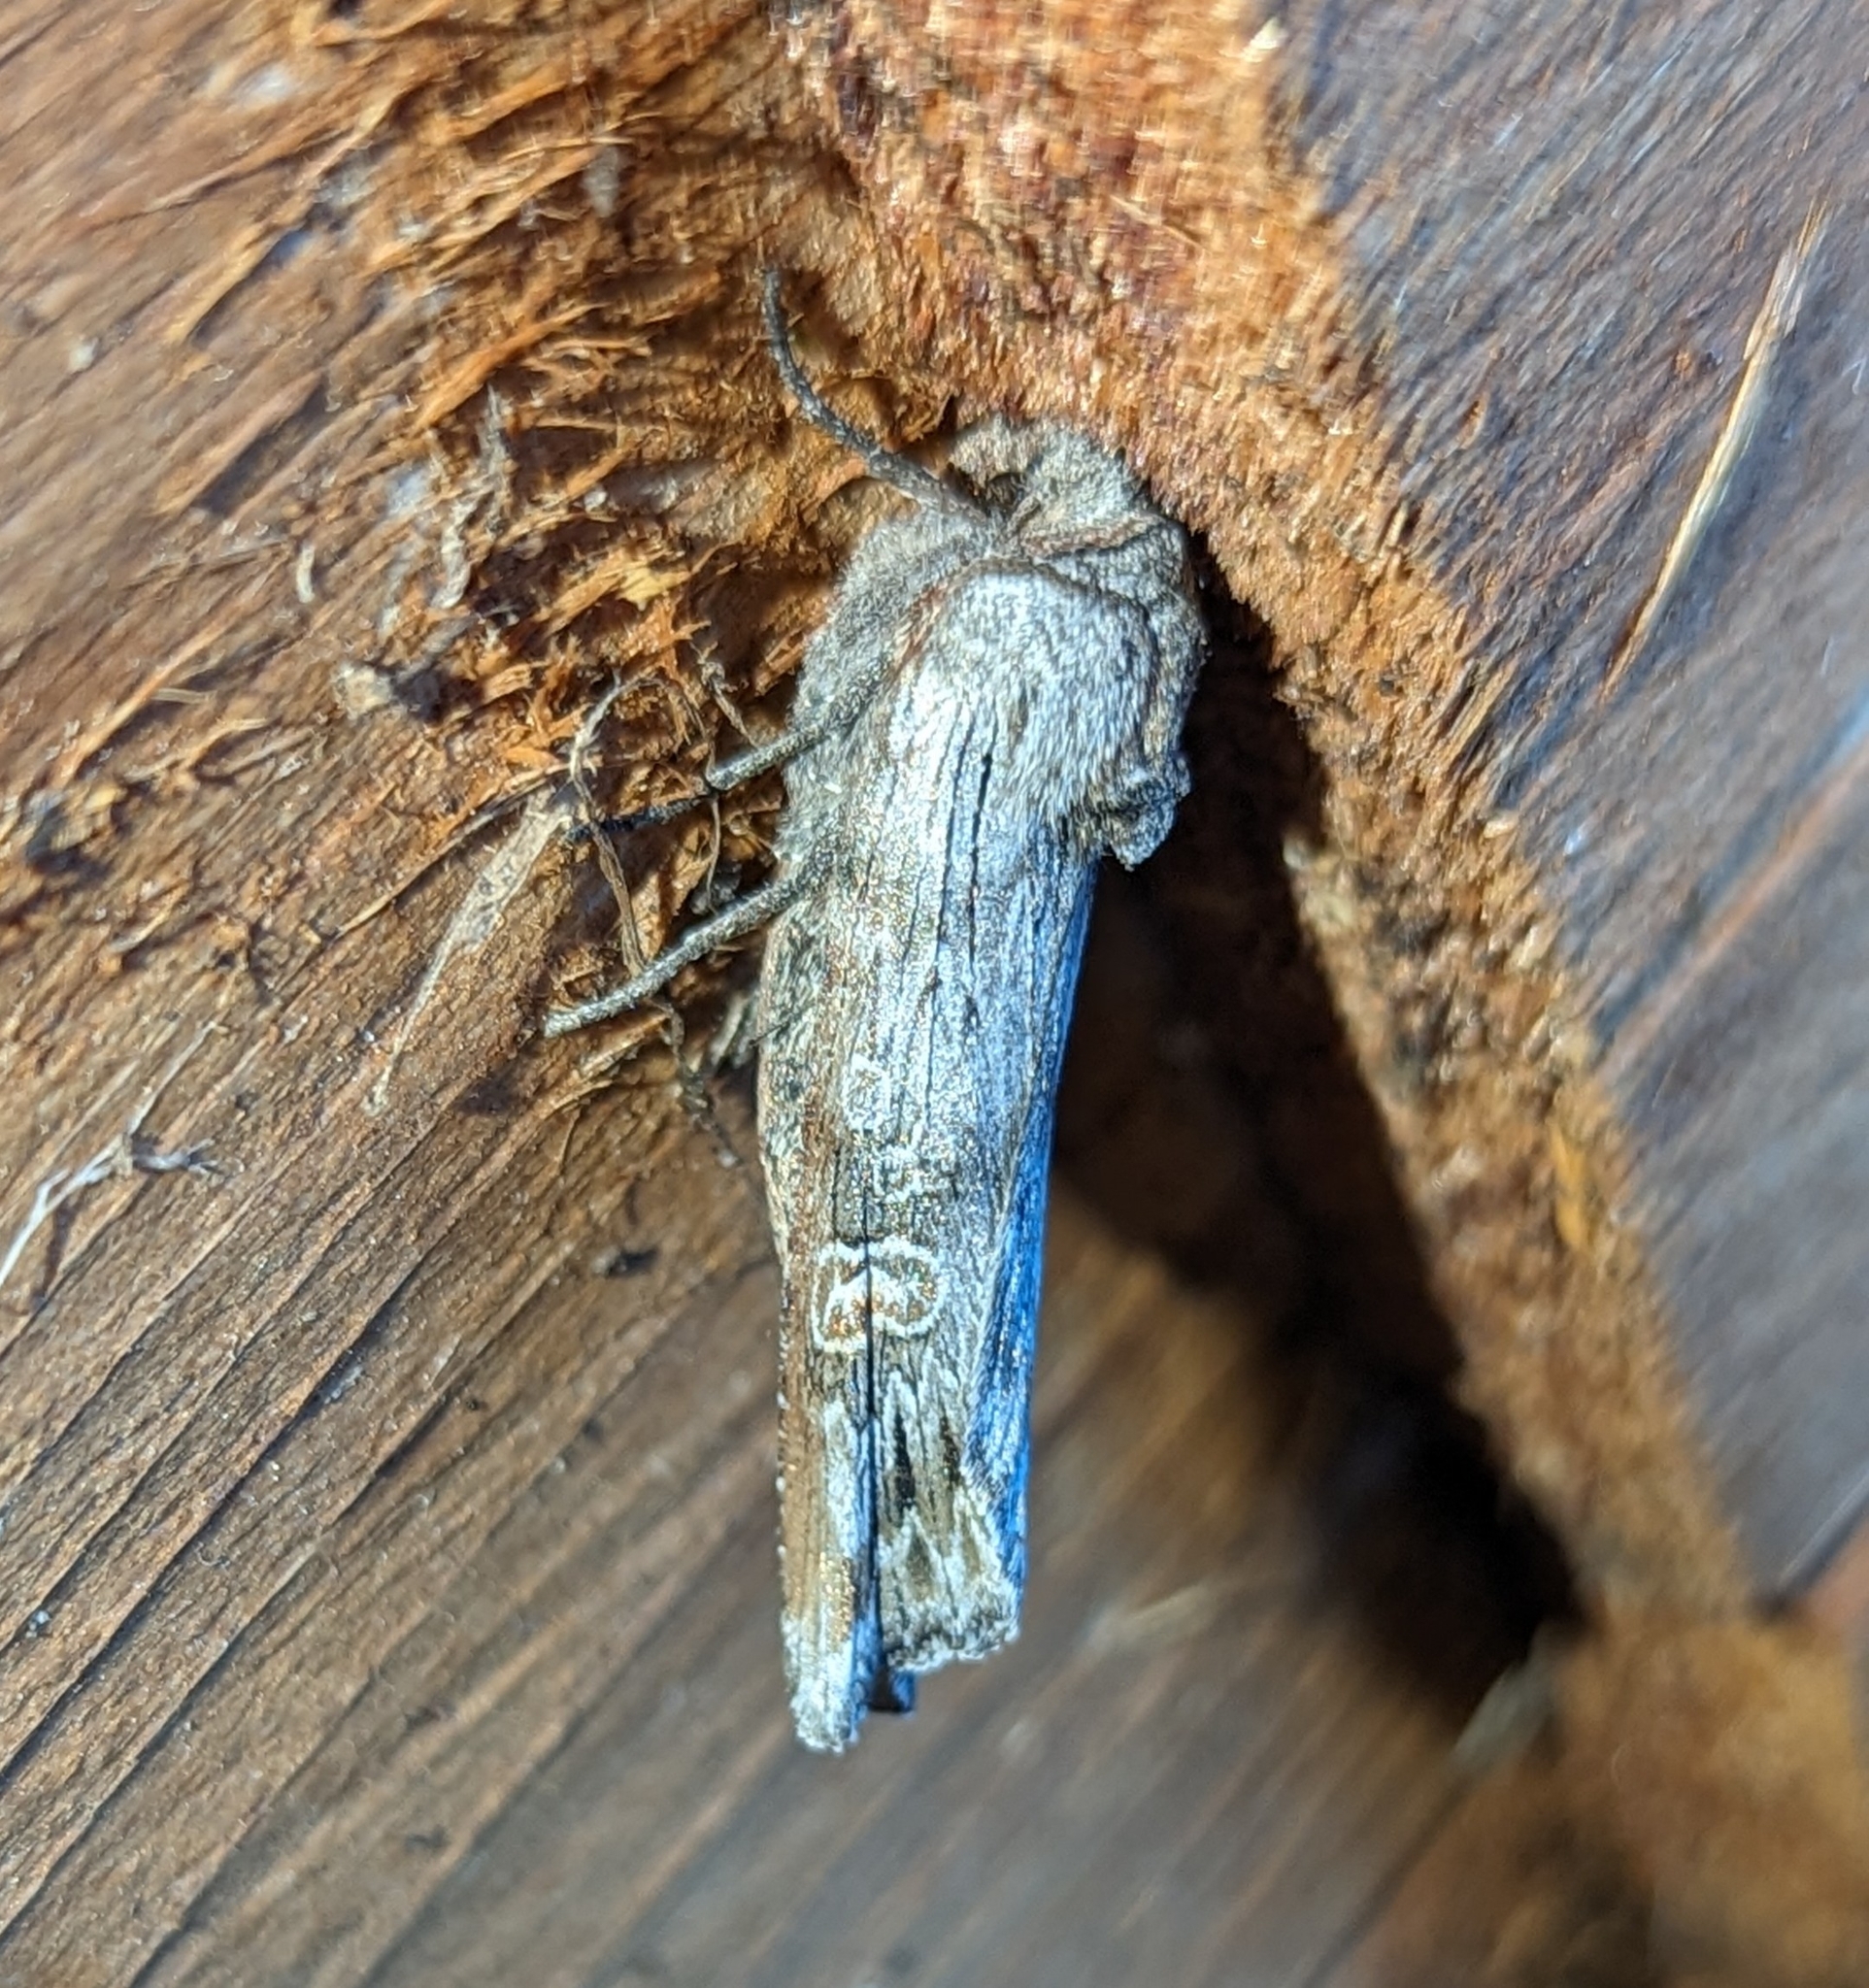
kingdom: Animalia
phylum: Arthropoda
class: Insecta
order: Lepidoptera
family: Noctuidae
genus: Xylena
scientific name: Xylena germana
